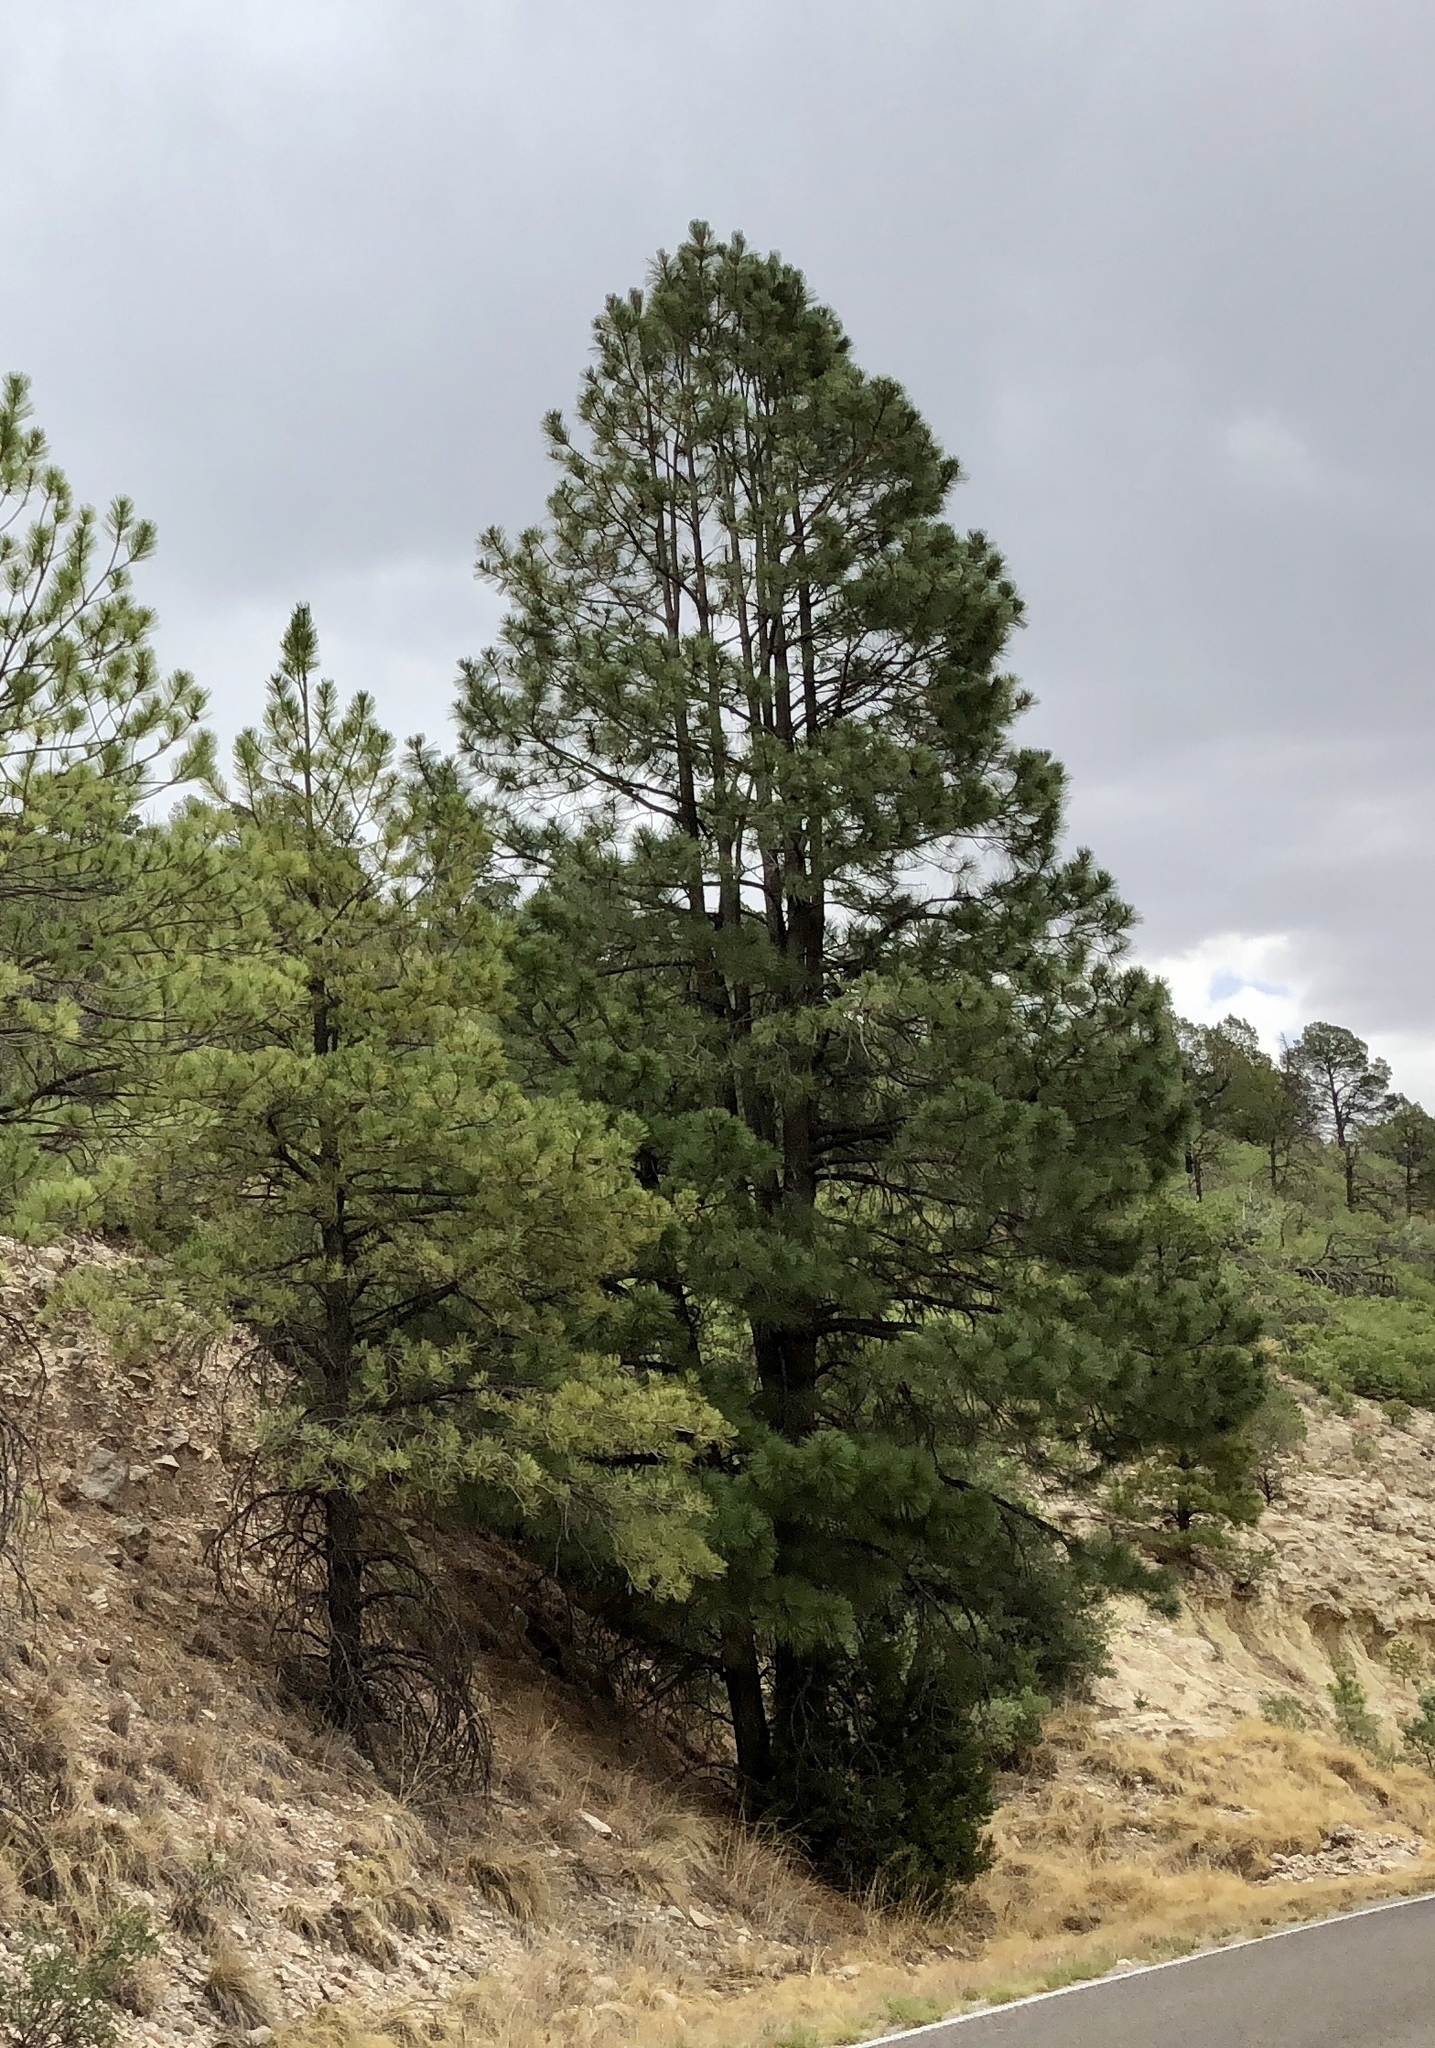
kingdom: Plantae
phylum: Tracheophyta
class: Pinopsida
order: Pinales
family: Pinaceae
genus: Pinus
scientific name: Pinus ponderosa
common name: Western yellow-pine
